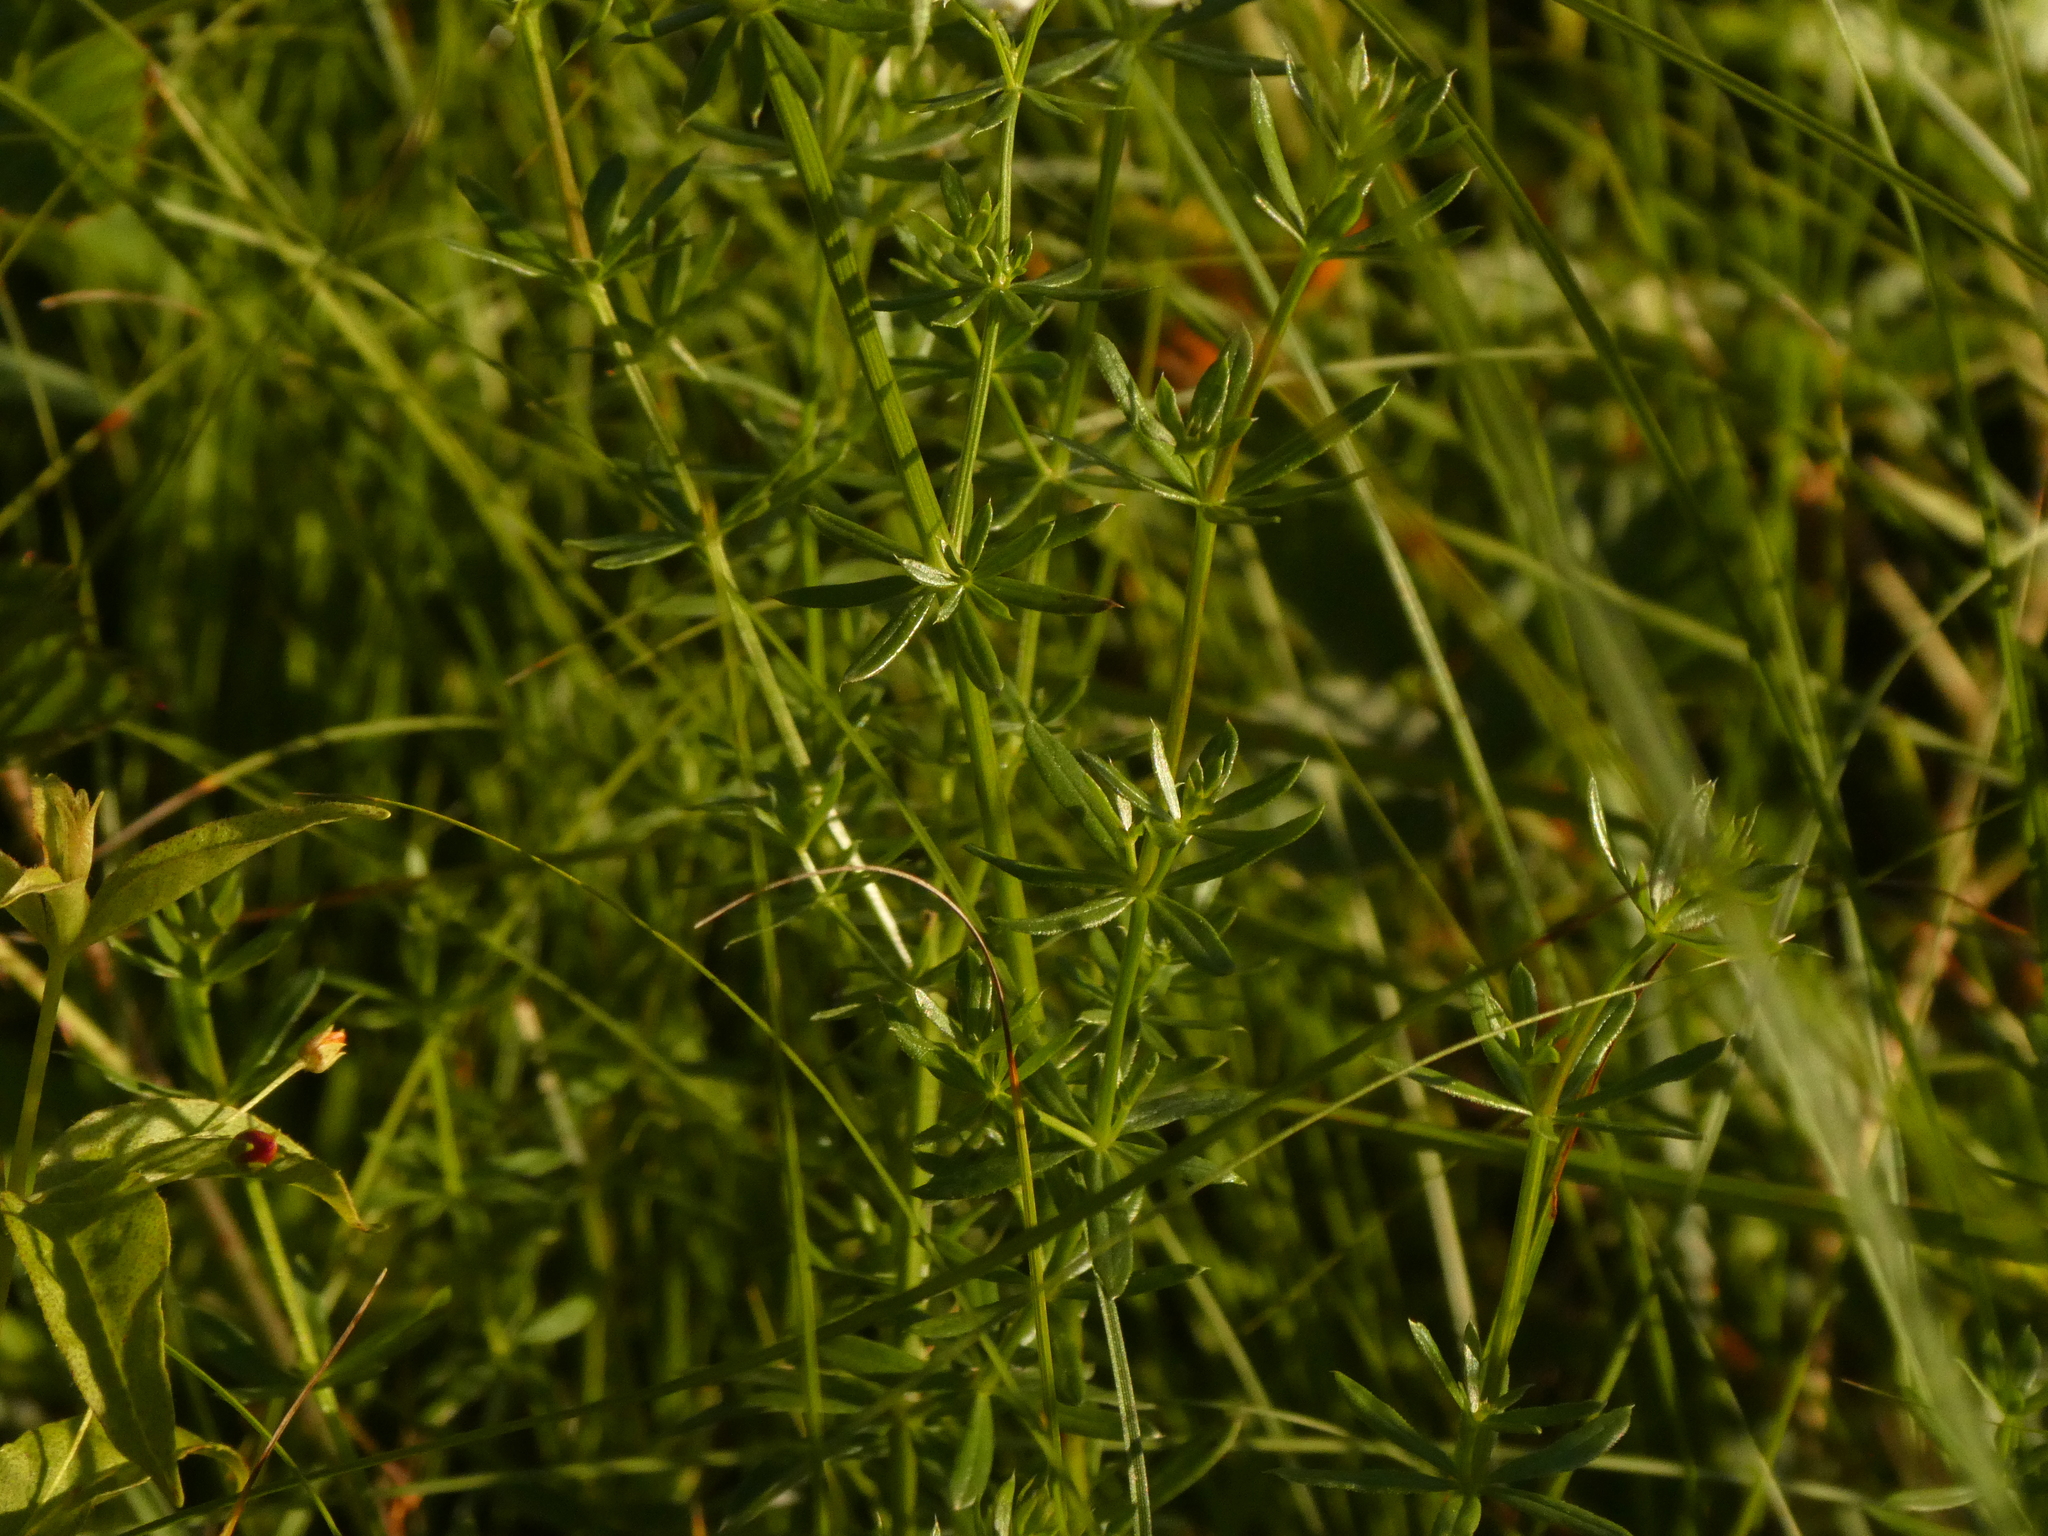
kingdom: Plantae
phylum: Tracheophyta
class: Magnoliopsida
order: Gentianales
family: Rubiaceae
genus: Galium
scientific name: Galium mollugo
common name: Hedge bedstraw
